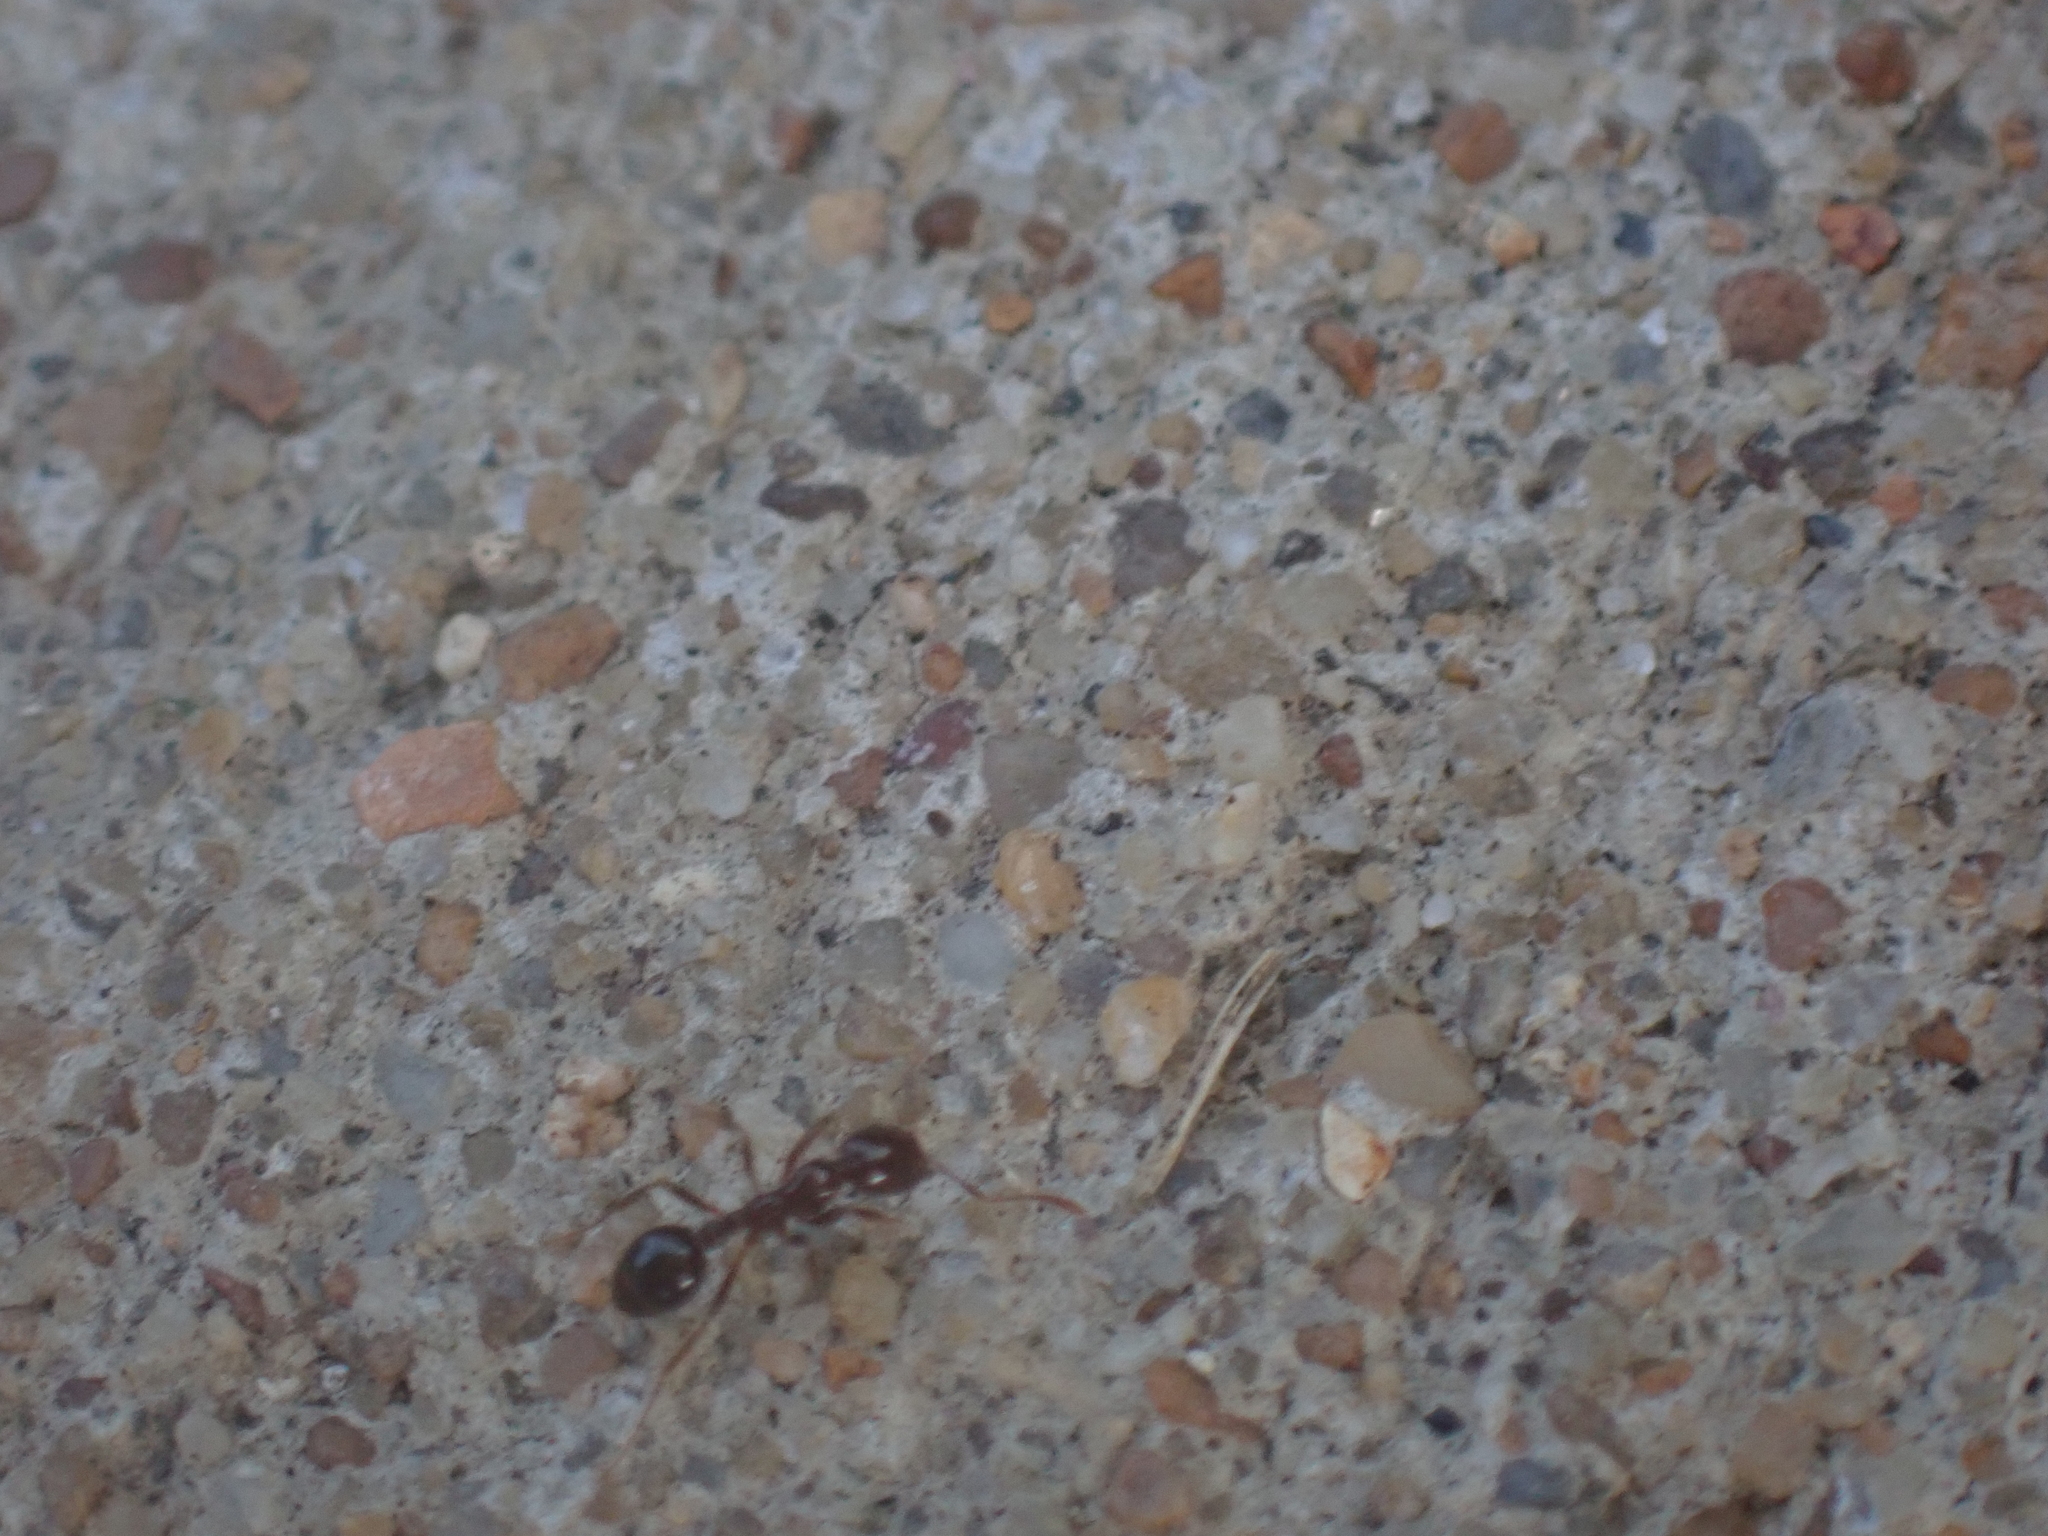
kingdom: Animalia
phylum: Arthropoda
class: Insecta
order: Hymenoptera
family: Formicidae
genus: Solenopsis
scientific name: Solenopsis
